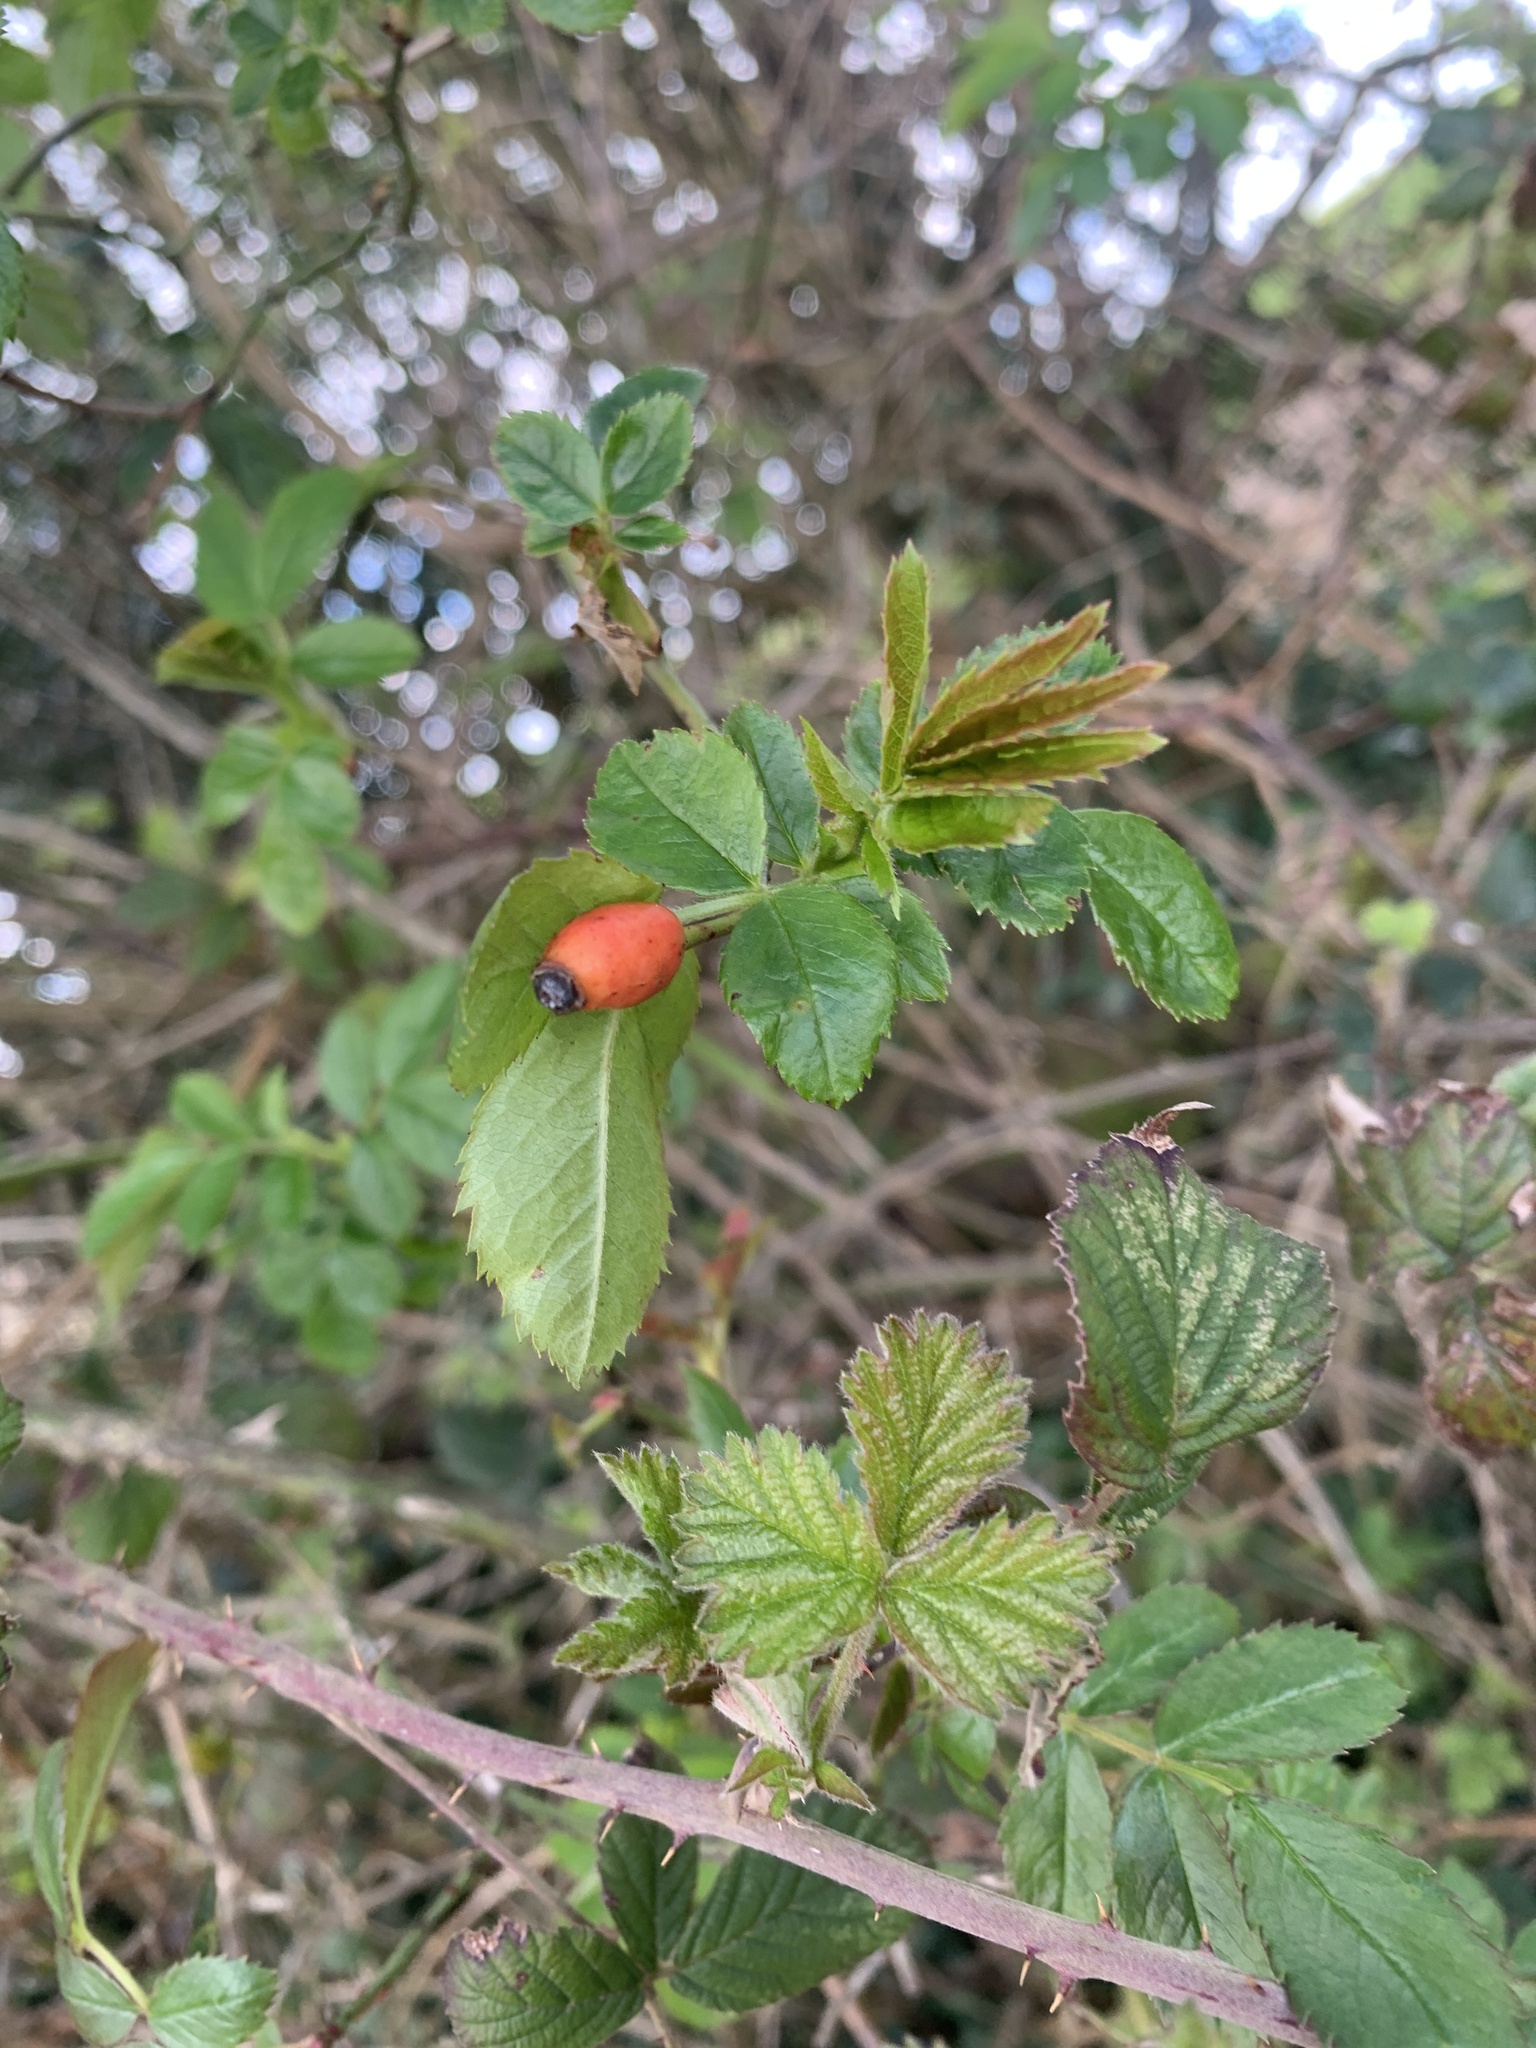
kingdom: Plantae
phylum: Tracheophyta
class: Magnoliopsida
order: Rosales
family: Rosaceae
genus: Rosa
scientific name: Rosa canina
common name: Dog rose
